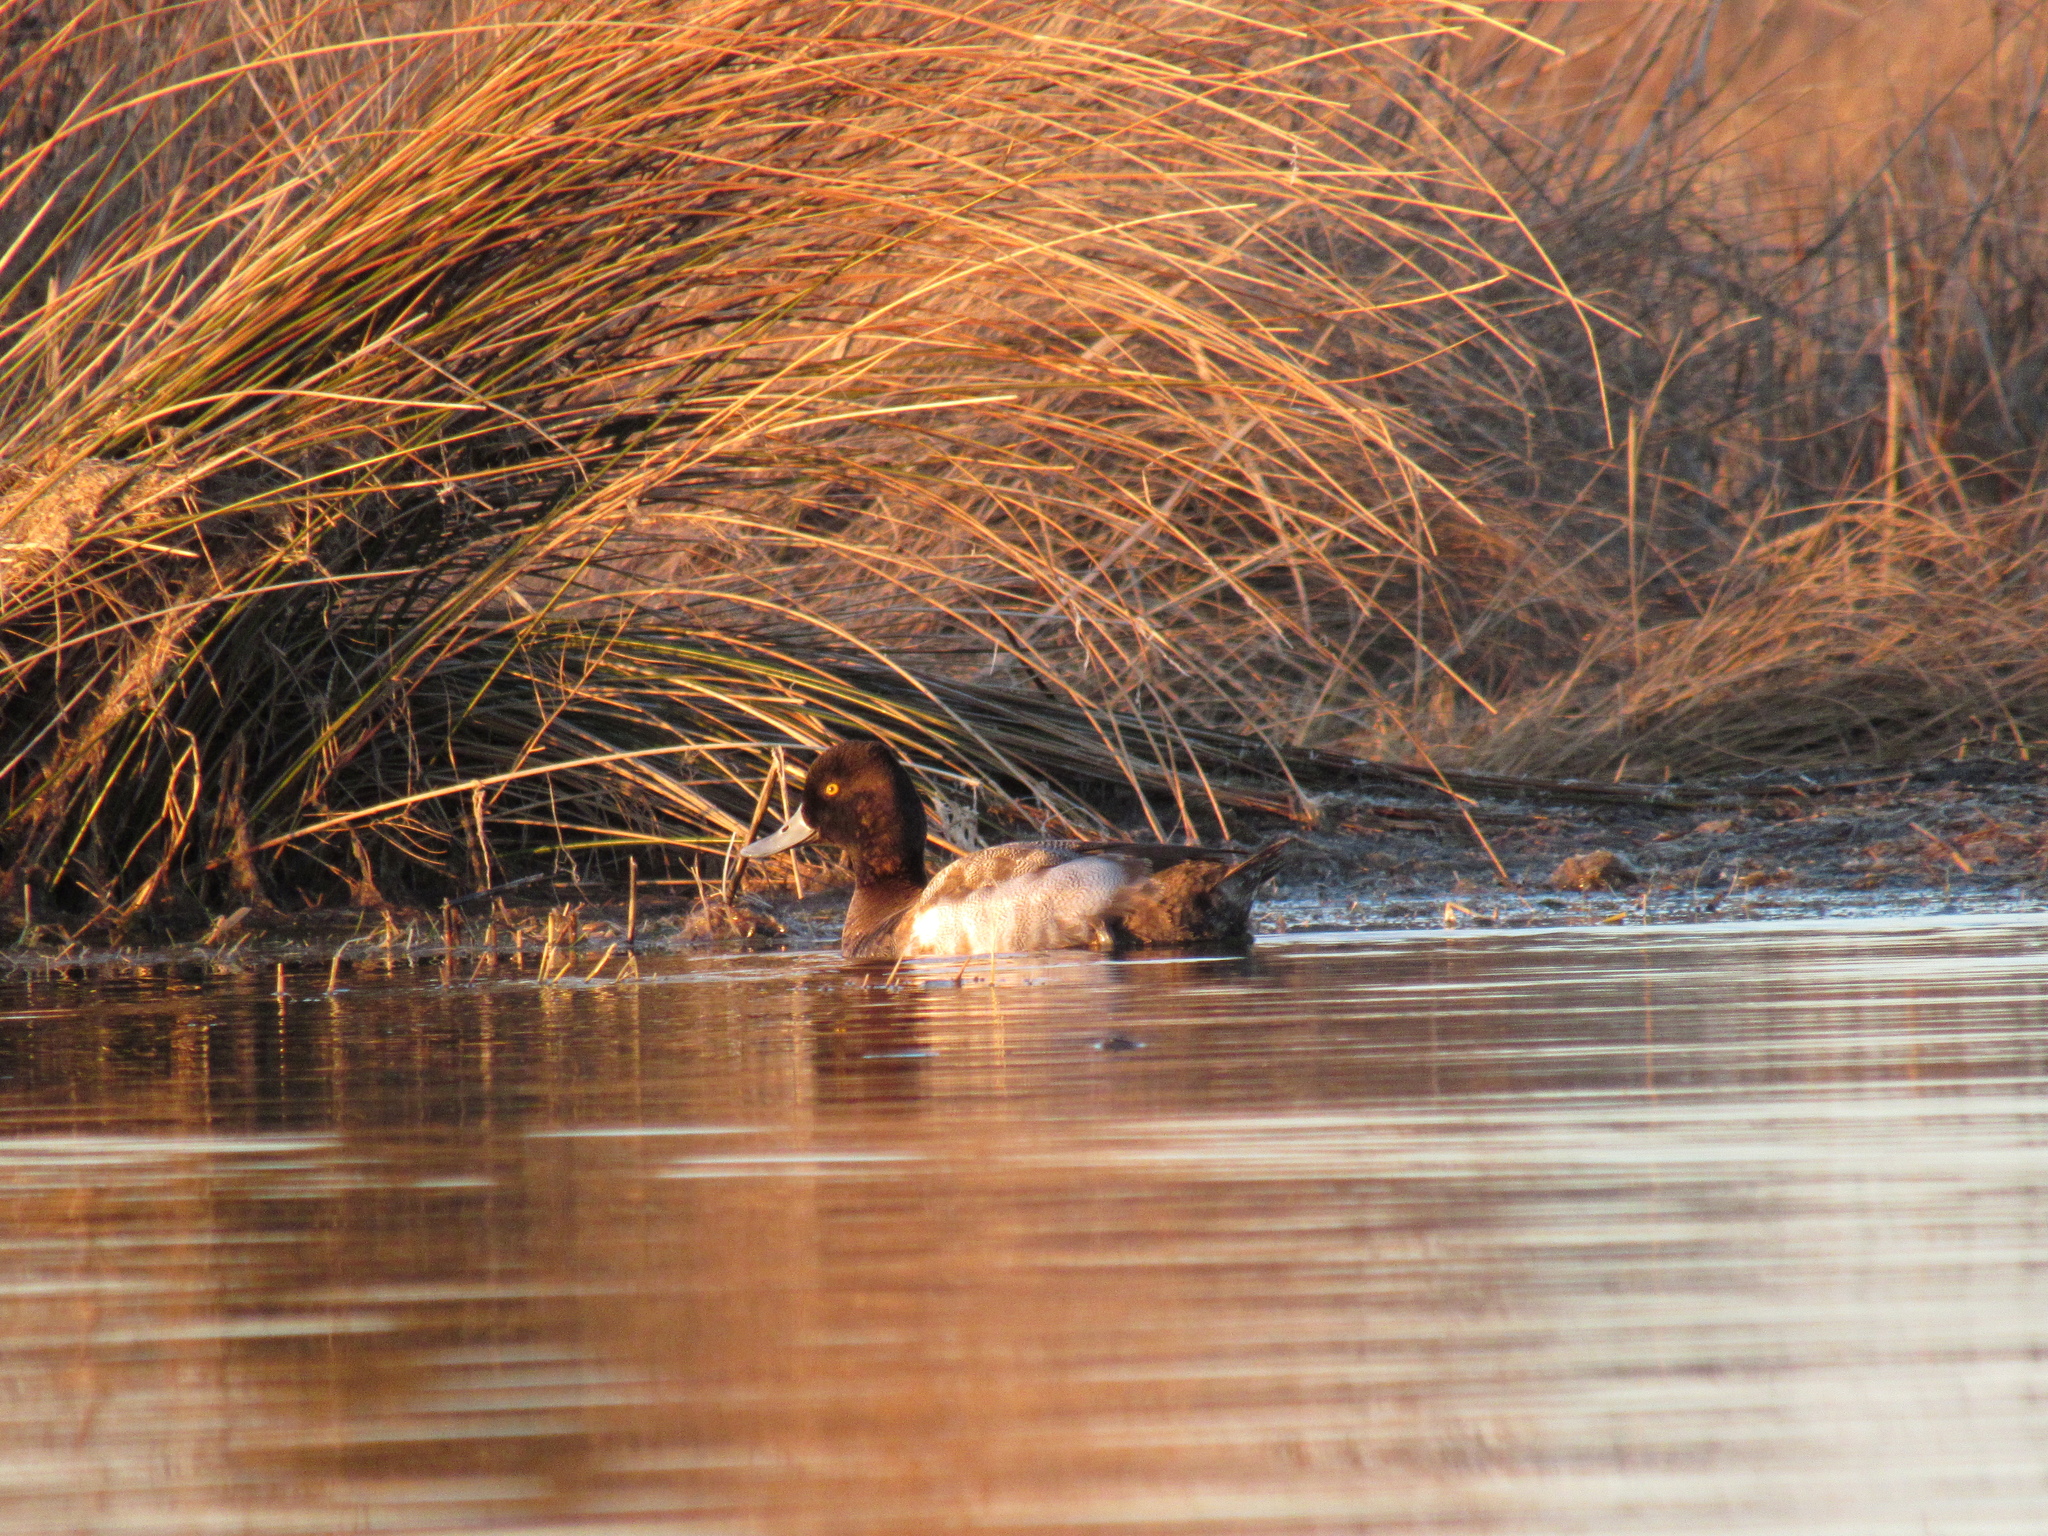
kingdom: Animalia
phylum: Chordata
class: Aves
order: Anseriformes
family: Anatidae
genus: Aythya
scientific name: Aythya affinis
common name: Lesser scaup
